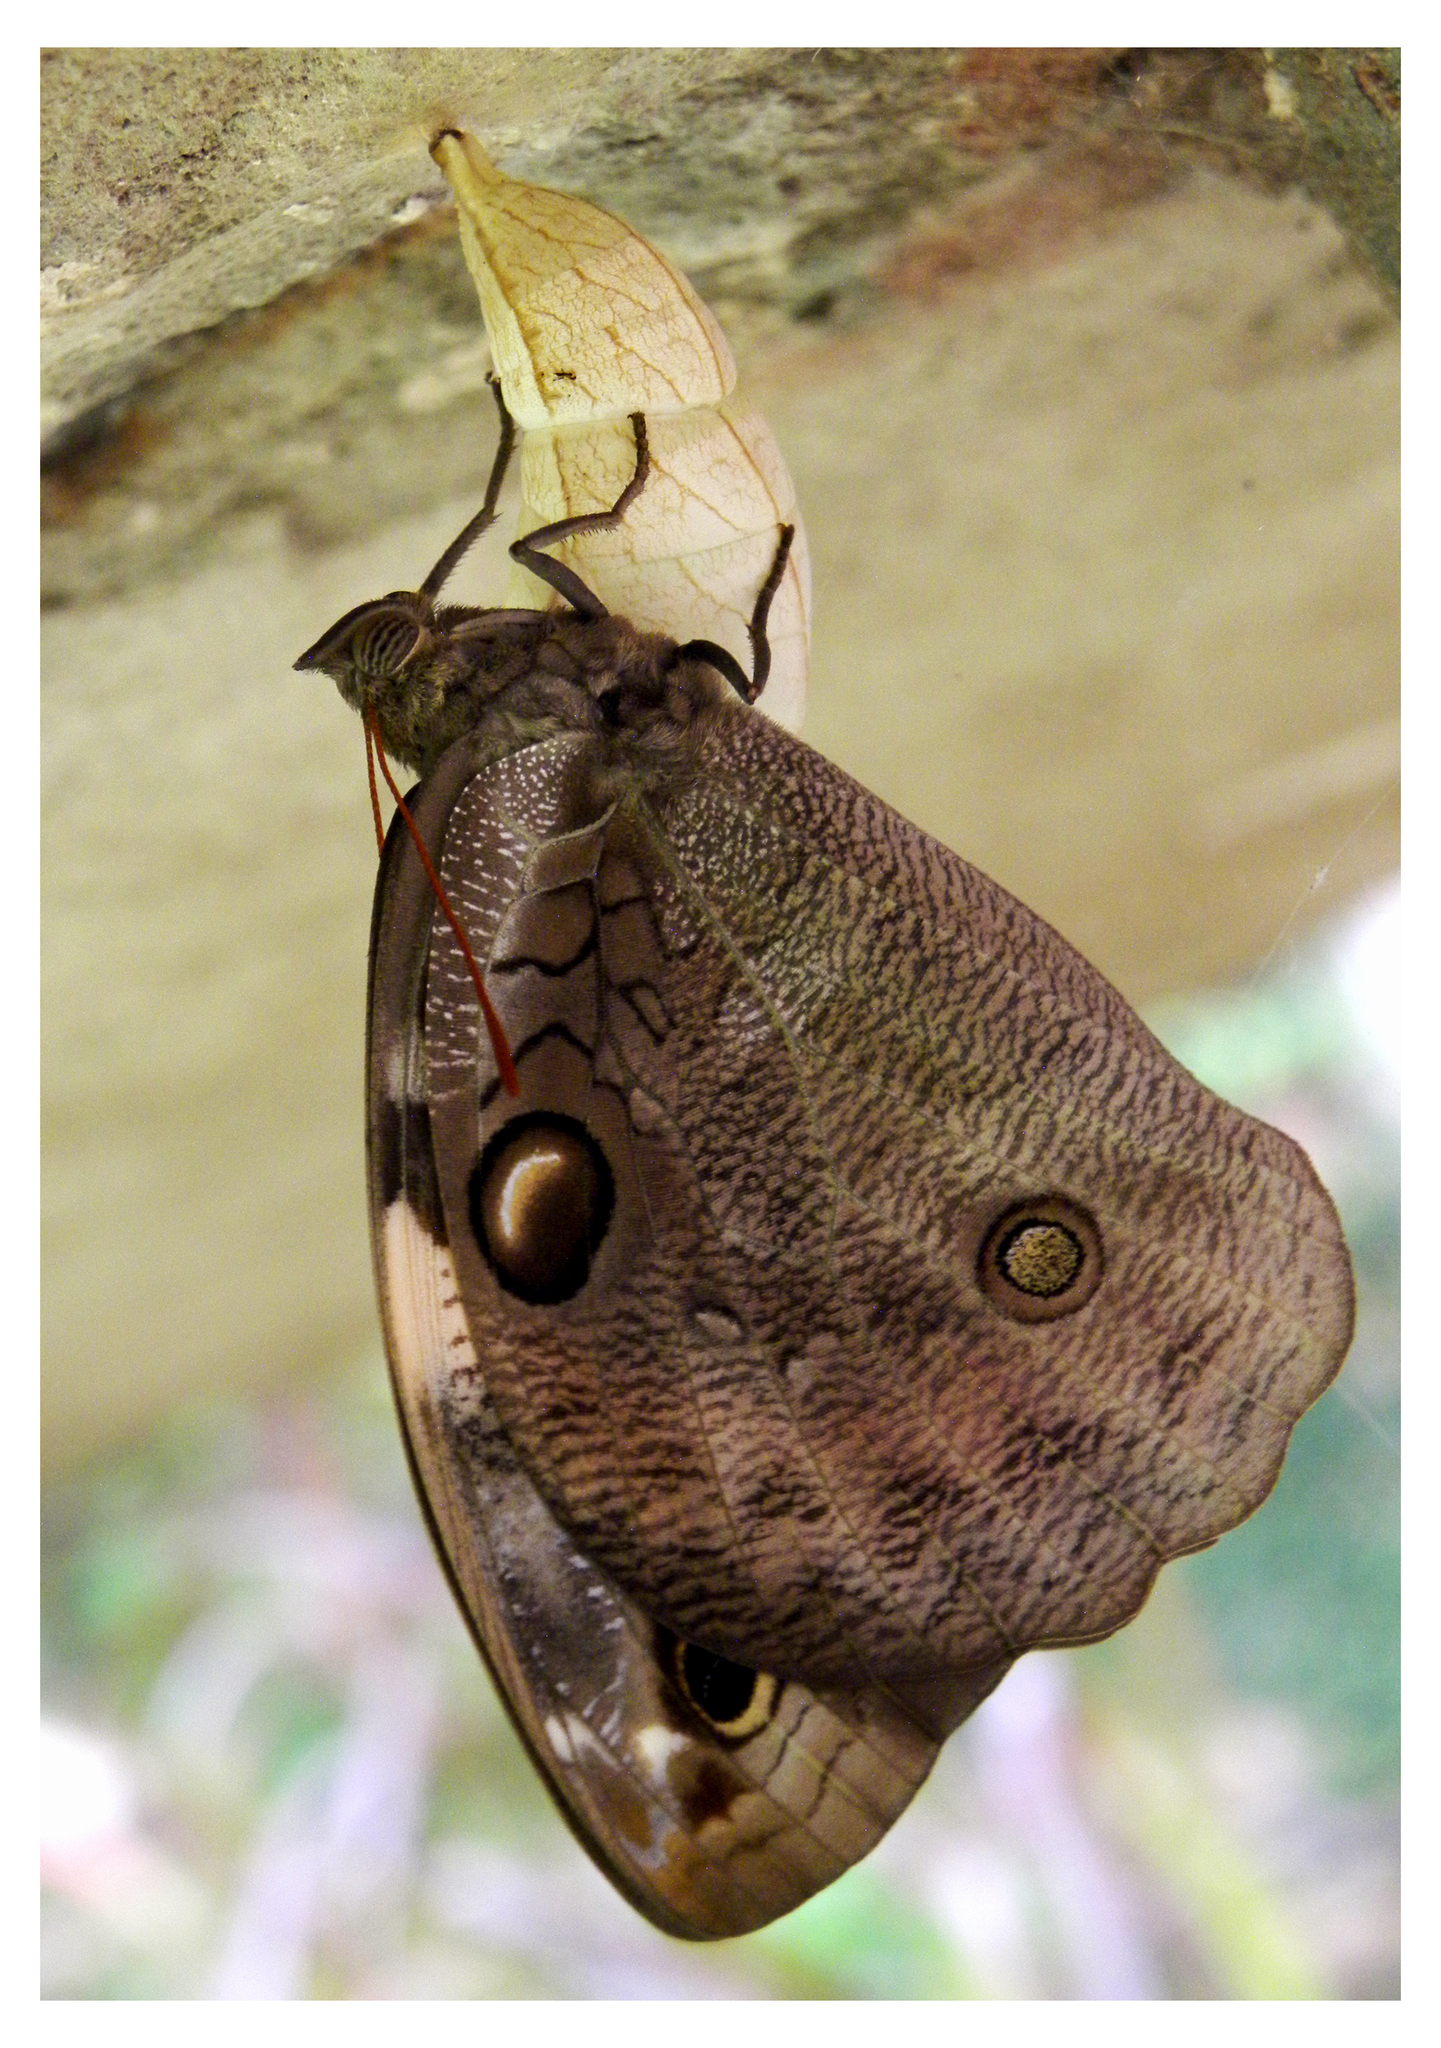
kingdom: Animalia
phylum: Arthropoda
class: Insecta
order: Lepidoptera
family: Nymphalidae
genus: Opsiphanes
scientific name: Opsiphanes invirae
